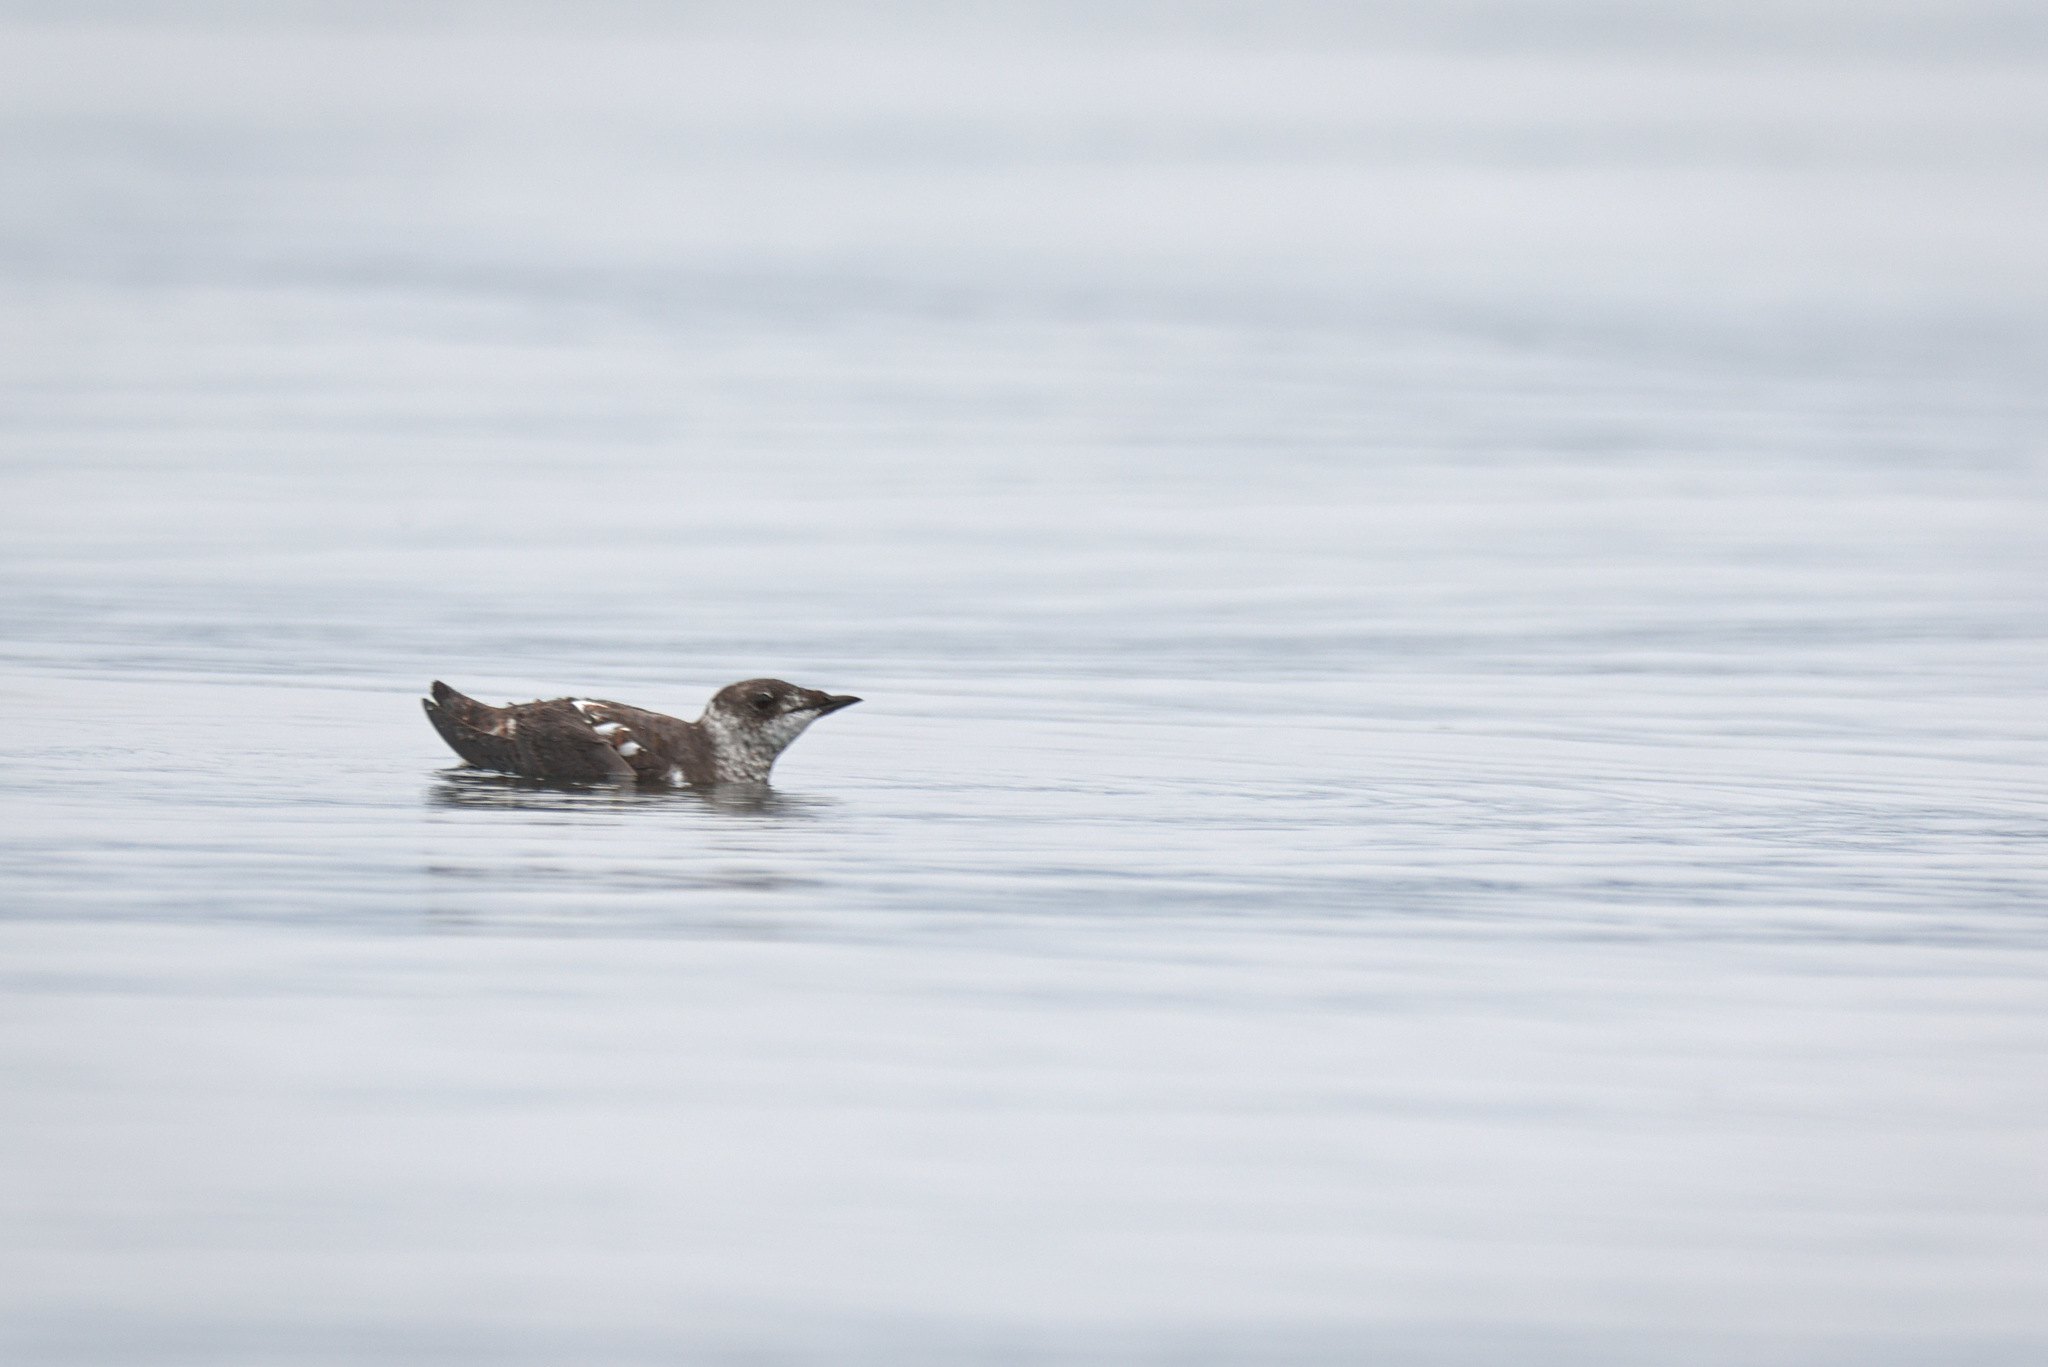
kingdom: Animalia
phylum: Chordata
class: Aves
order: Charadriiformes
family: Alcidae
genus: Brachyramphus
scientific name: Brachyramphus marmoratus
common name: Marbled murrelet
